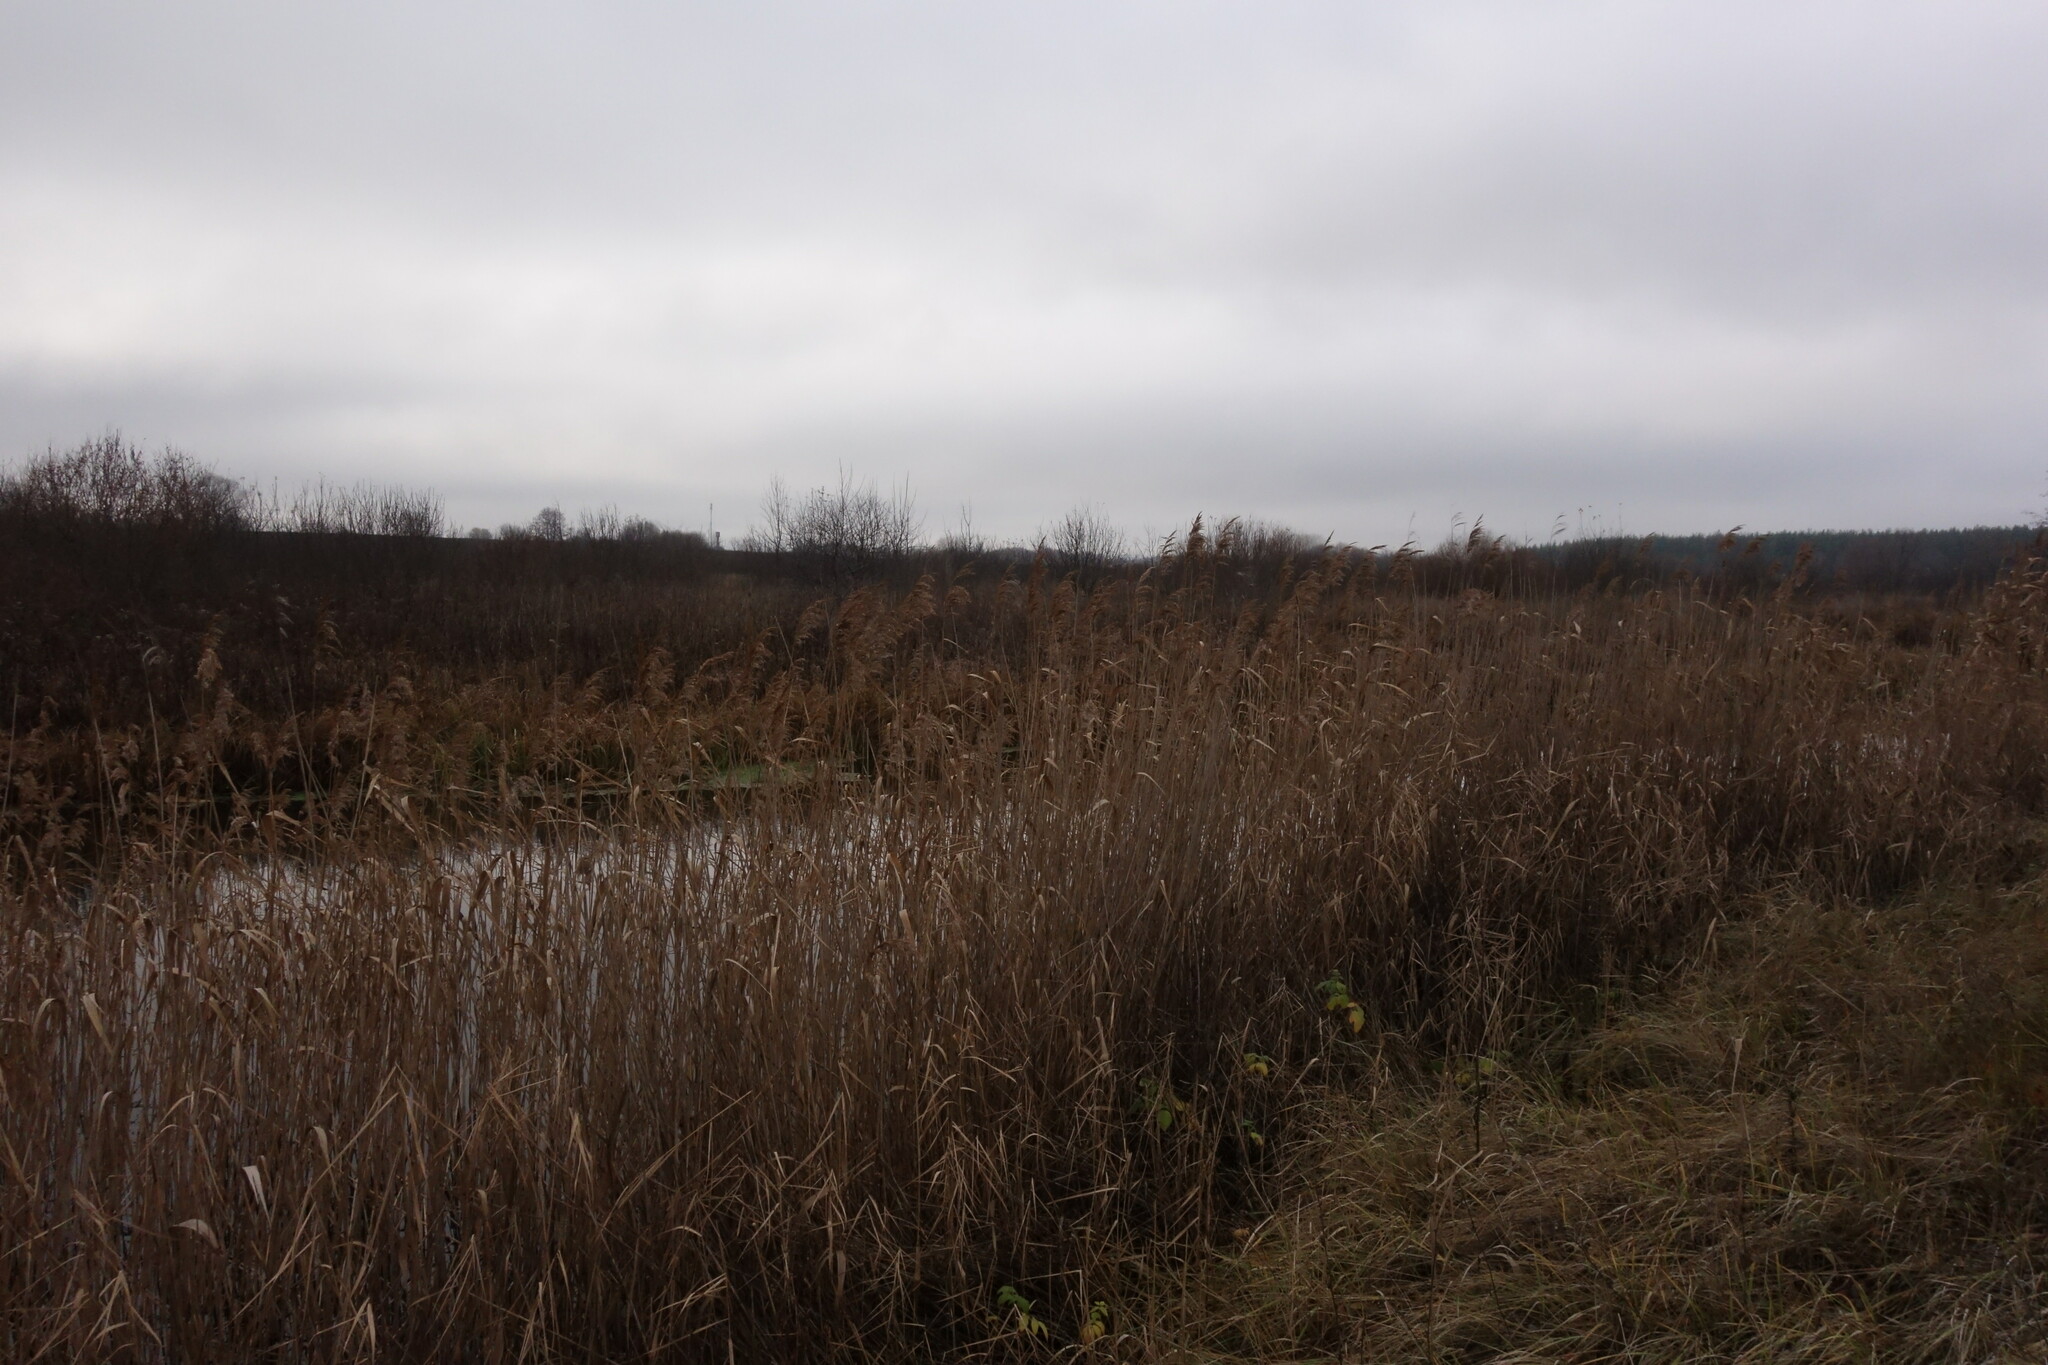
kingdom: Plantae
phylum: Tracheophyta
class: Liliopsida
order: Poales
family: Poaceae
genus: Phragmites
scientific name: Phragmites australis
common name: Common reed
